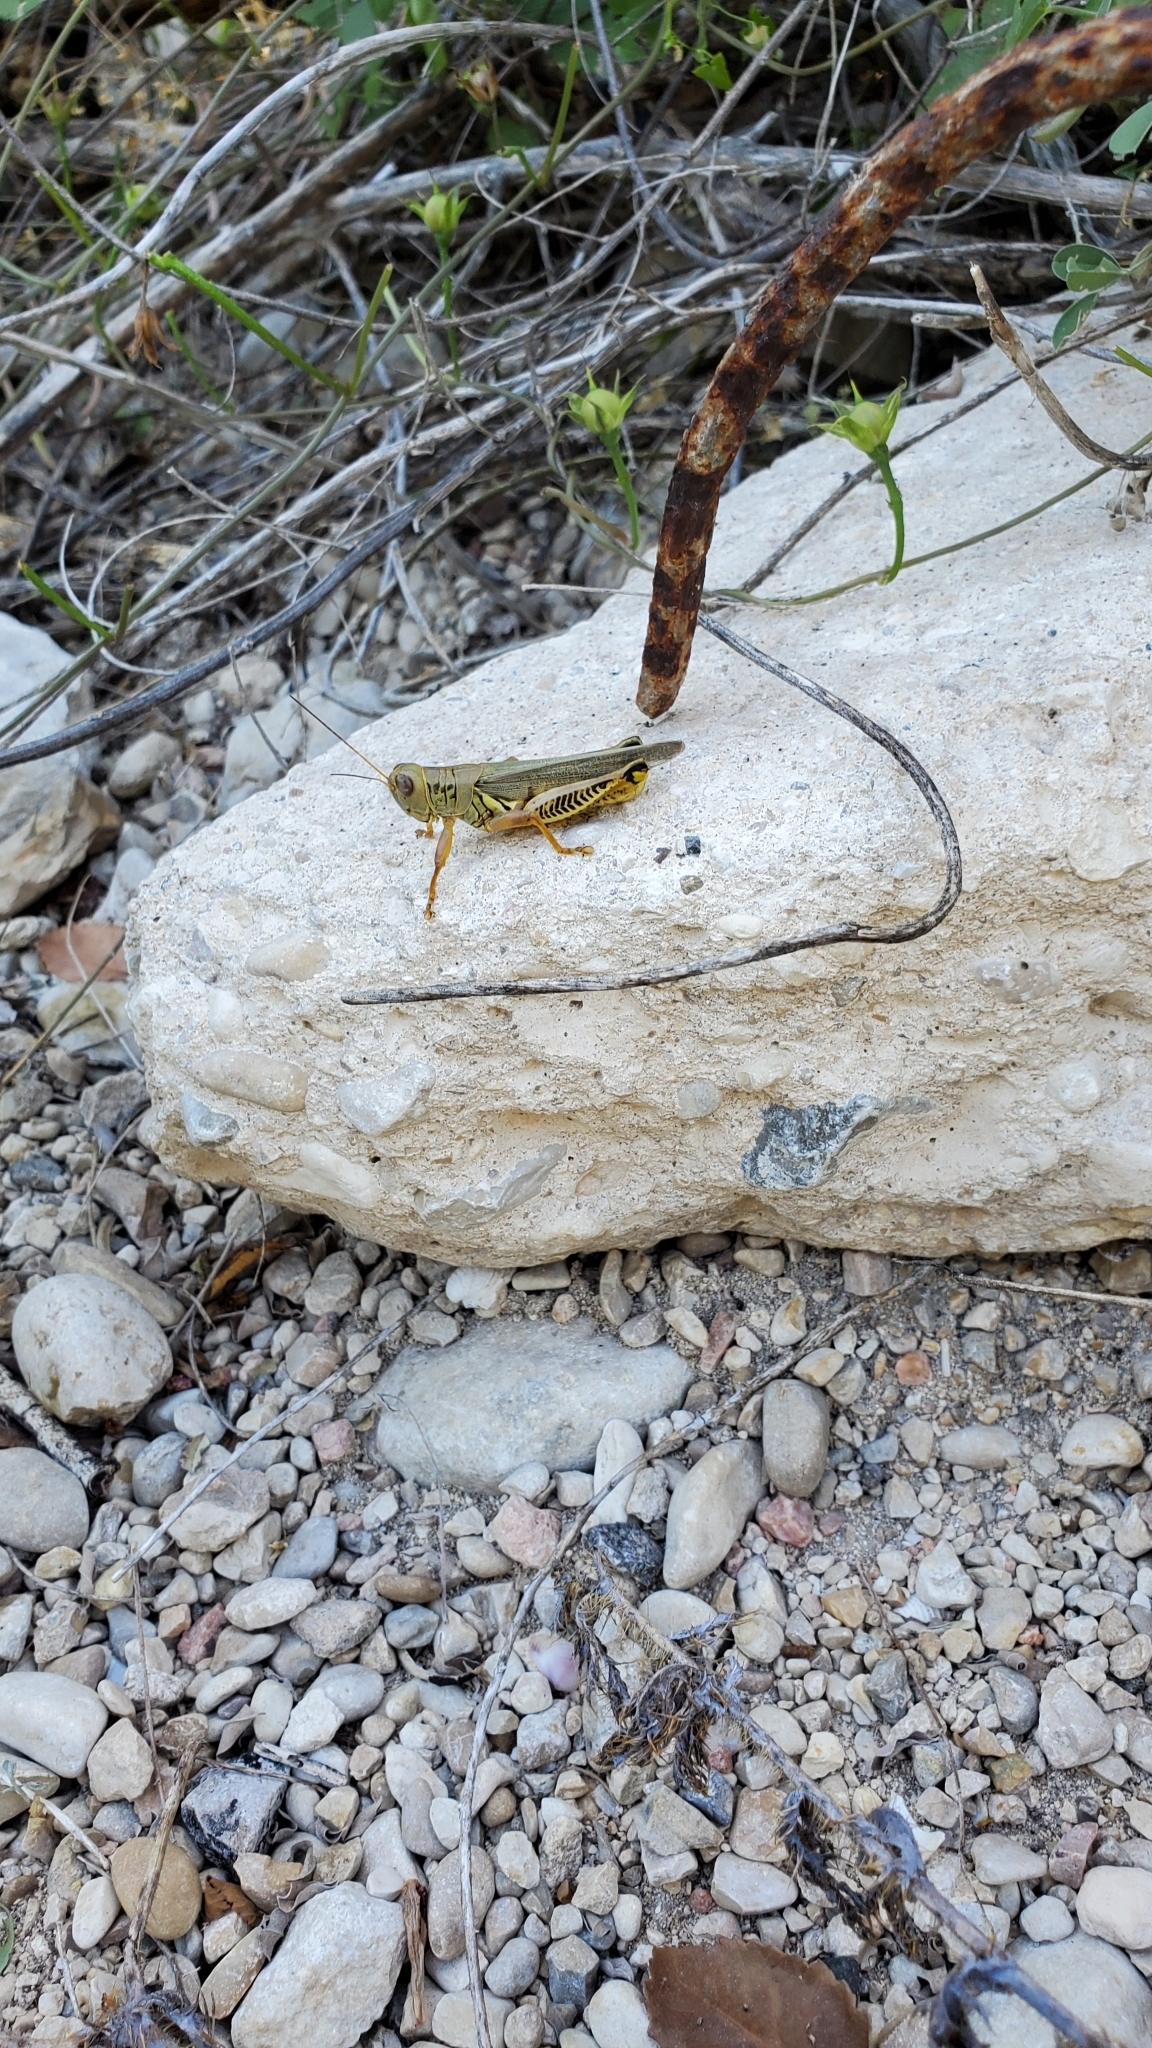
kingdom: Animalia
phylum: Arthropoda
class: Insecta
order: Orthoptera
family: Acrididae
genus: Melanoplus
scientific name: Melanoplus differentialis
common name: Differential grasshopper
